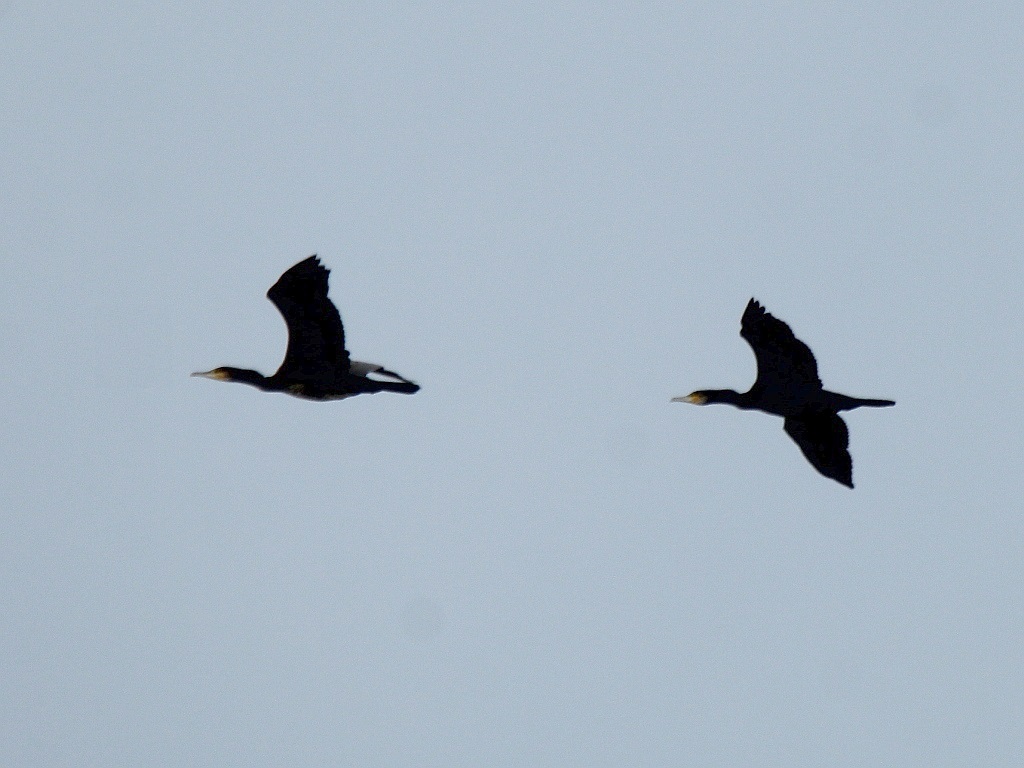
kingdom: Animalia
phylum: Chordata
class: Aves
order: Suliformes
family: Phalacrocoracidae
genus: Phalacrocorax
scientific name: Phalacrocorax carbo
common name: Great cormorant
